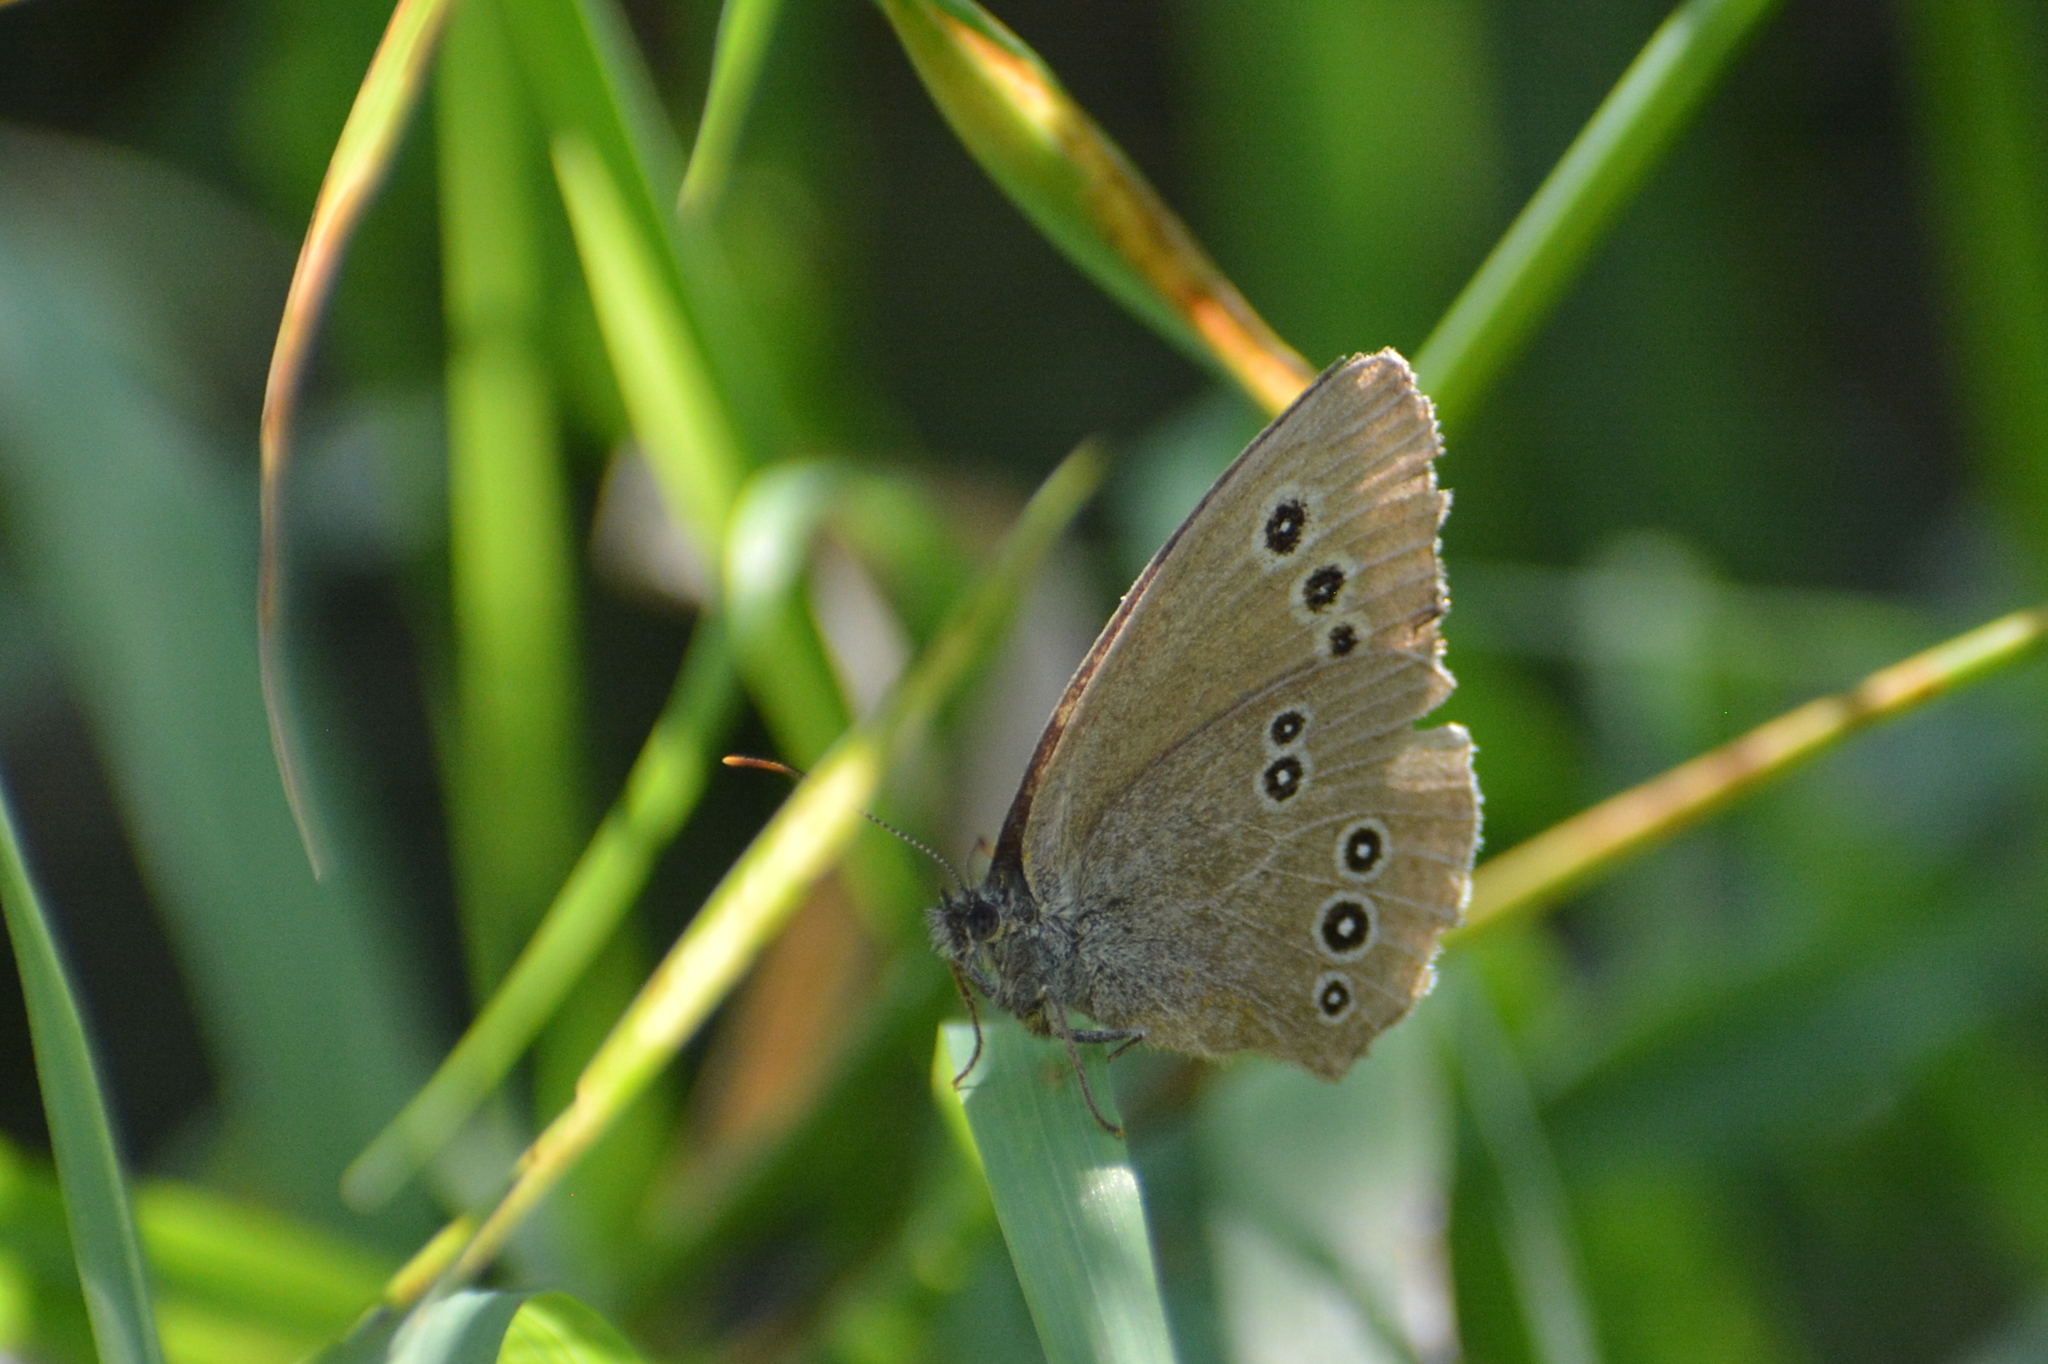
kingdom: Animalia
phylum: Arthropoda
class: Insecta
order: Lepidoptera
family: Nymphalidae
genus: Aphantopus
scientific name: Aphantopus hyperantus
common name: Ringlet
